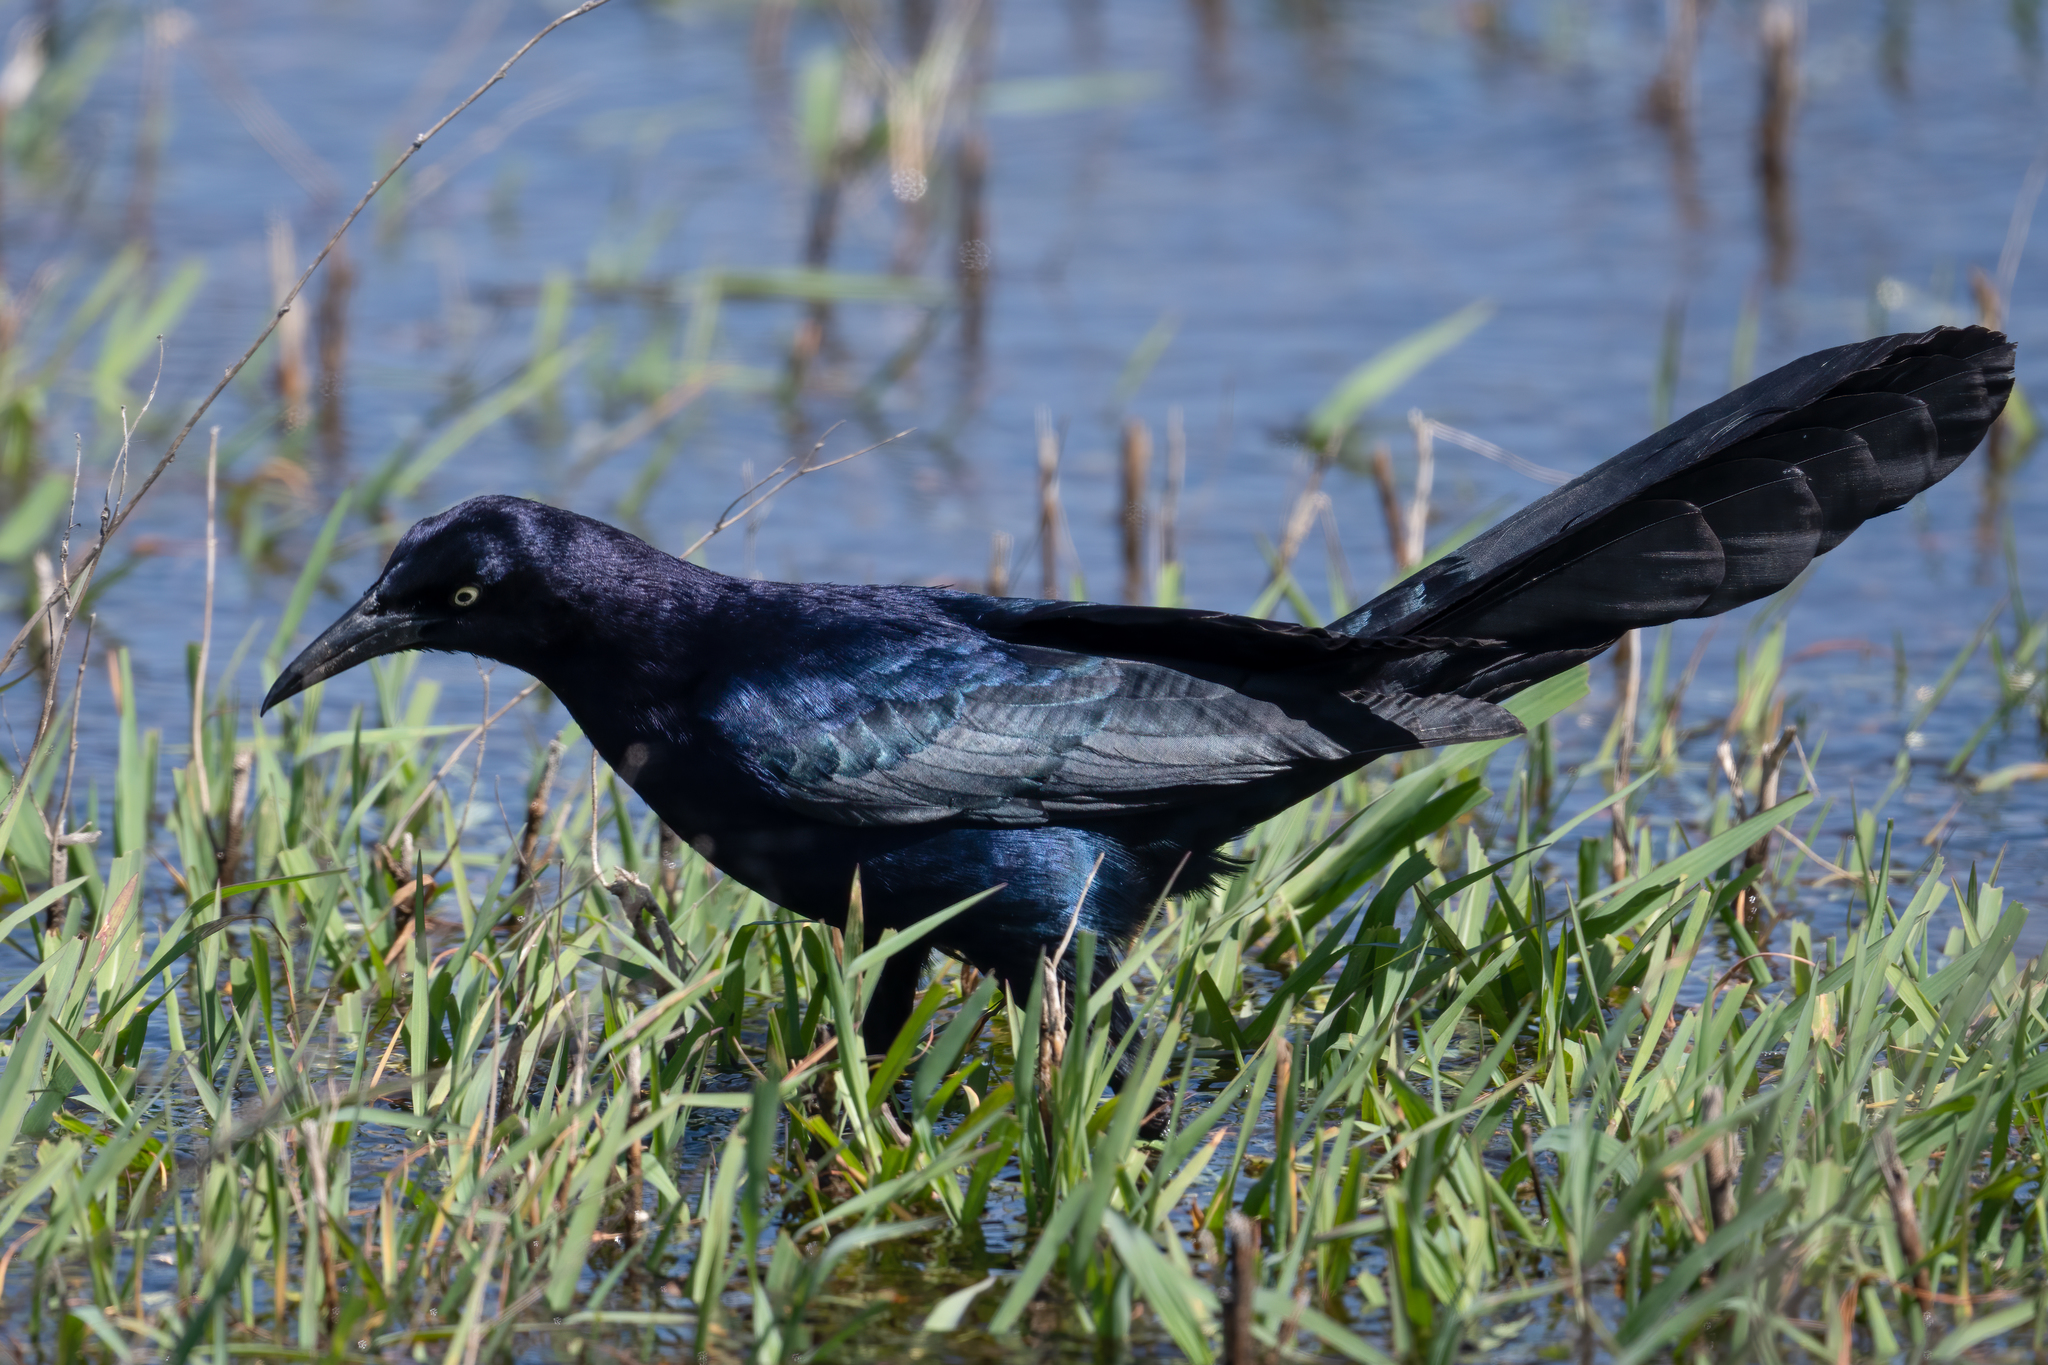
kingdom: Animalia
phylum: Chordata
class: Aves
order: Passeriformes
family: Icteridae
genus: Quiscalus
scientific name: Quiscalus mexicanus
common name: Great-tailed grackle
